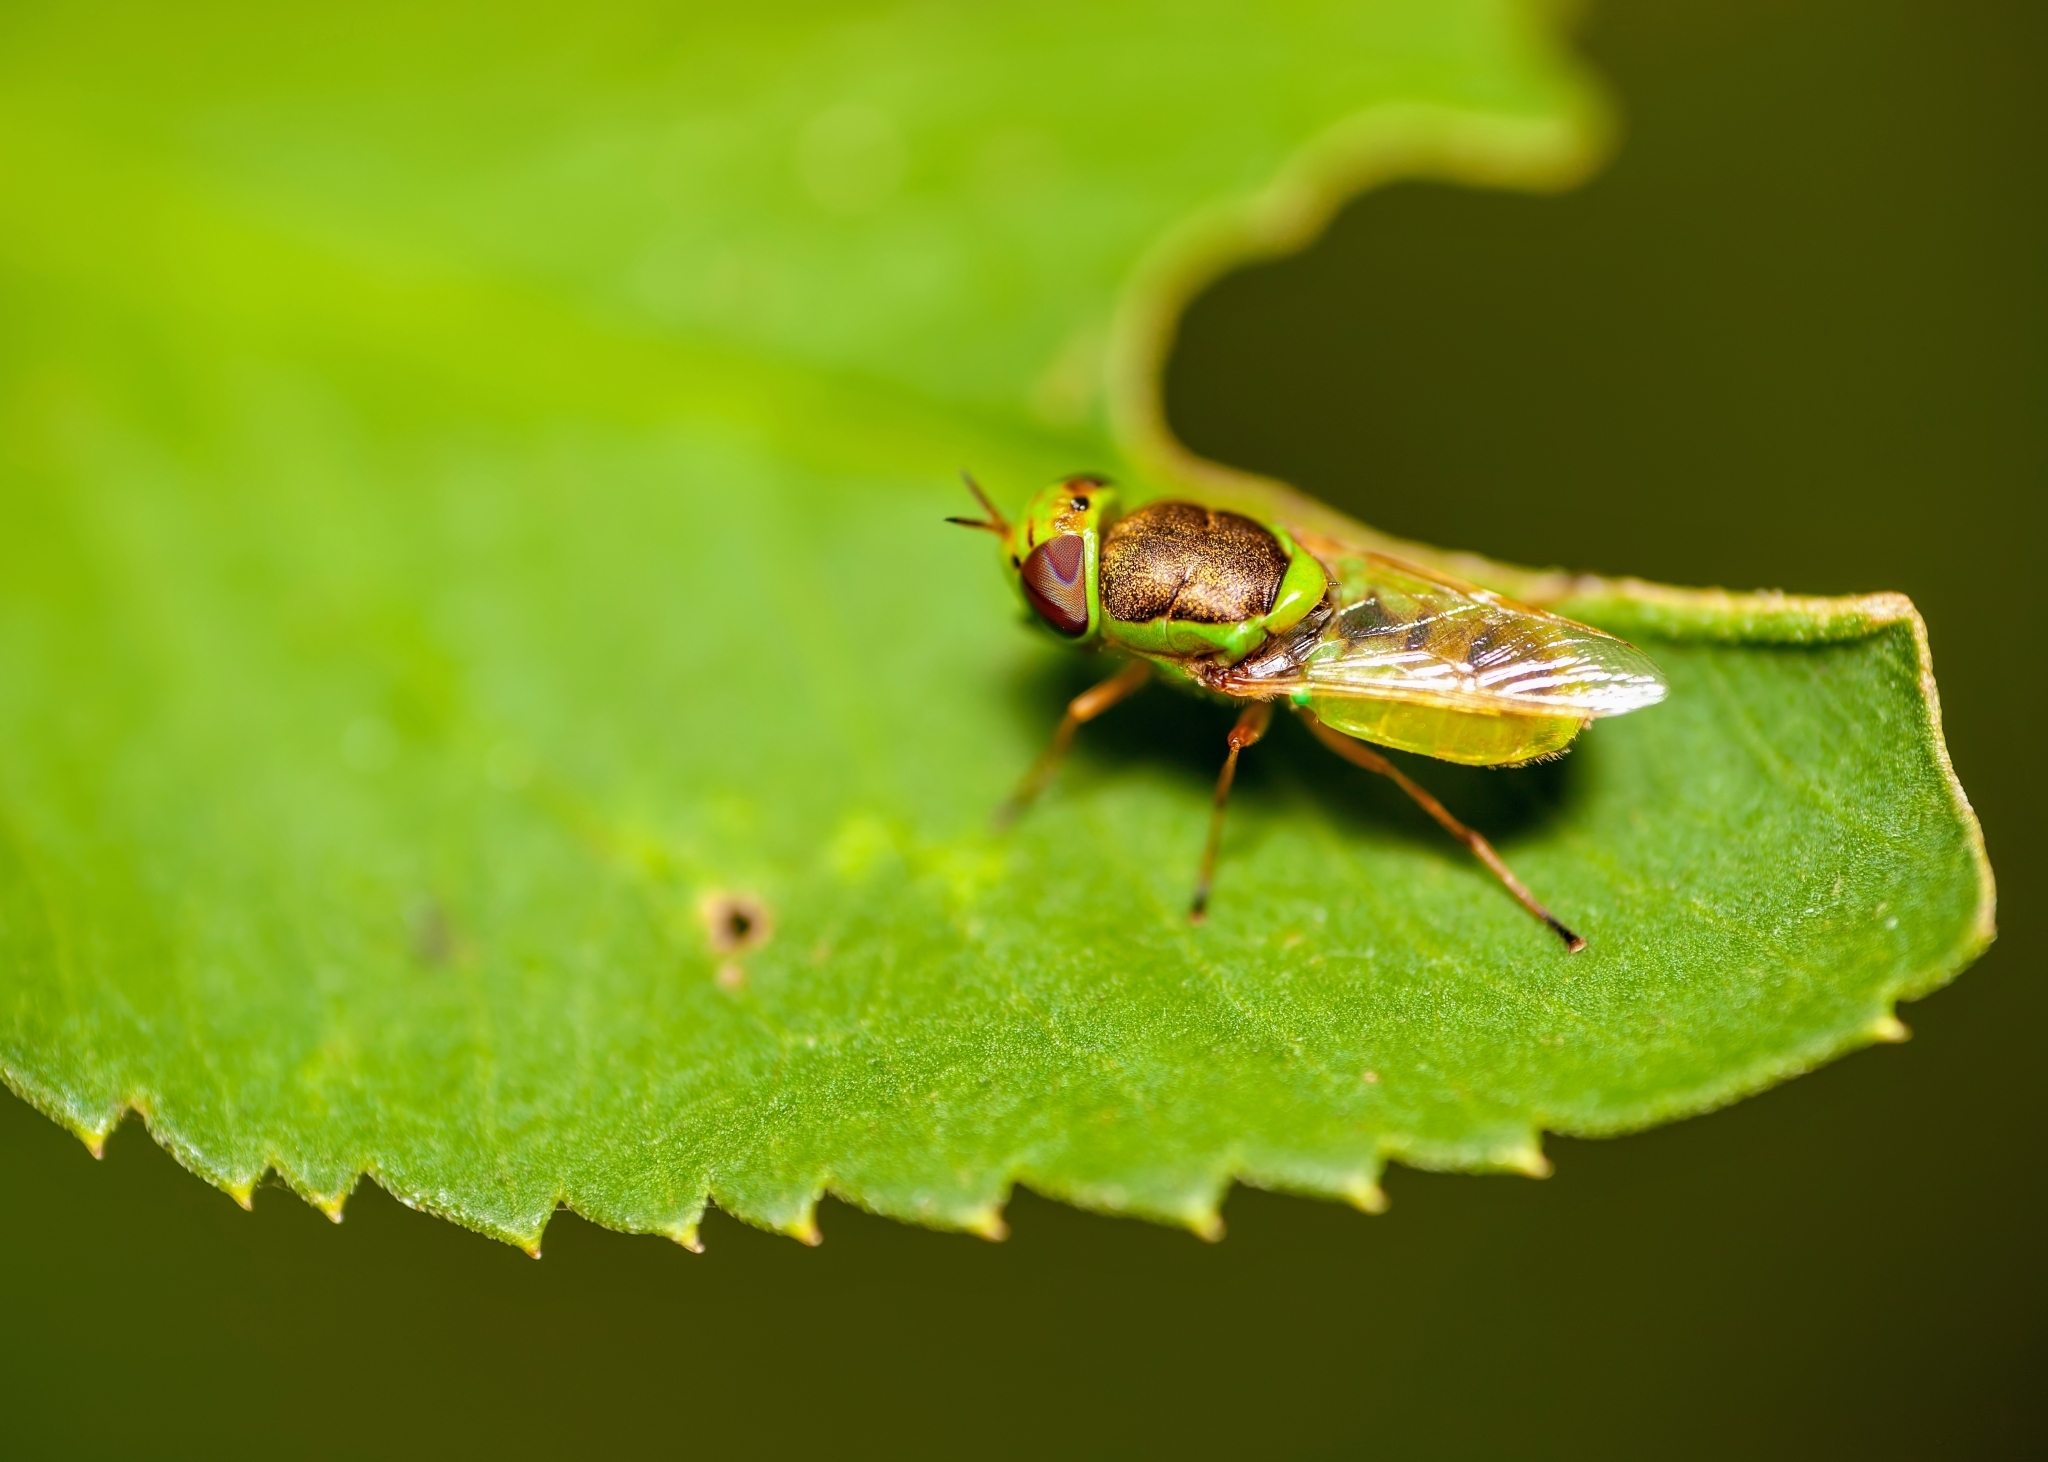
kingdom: Animalia
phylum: Arthropoda
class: Insecta
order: Diptera
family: Stratiomyidae
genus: Odontomyia
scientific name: Odontomyia cincta
